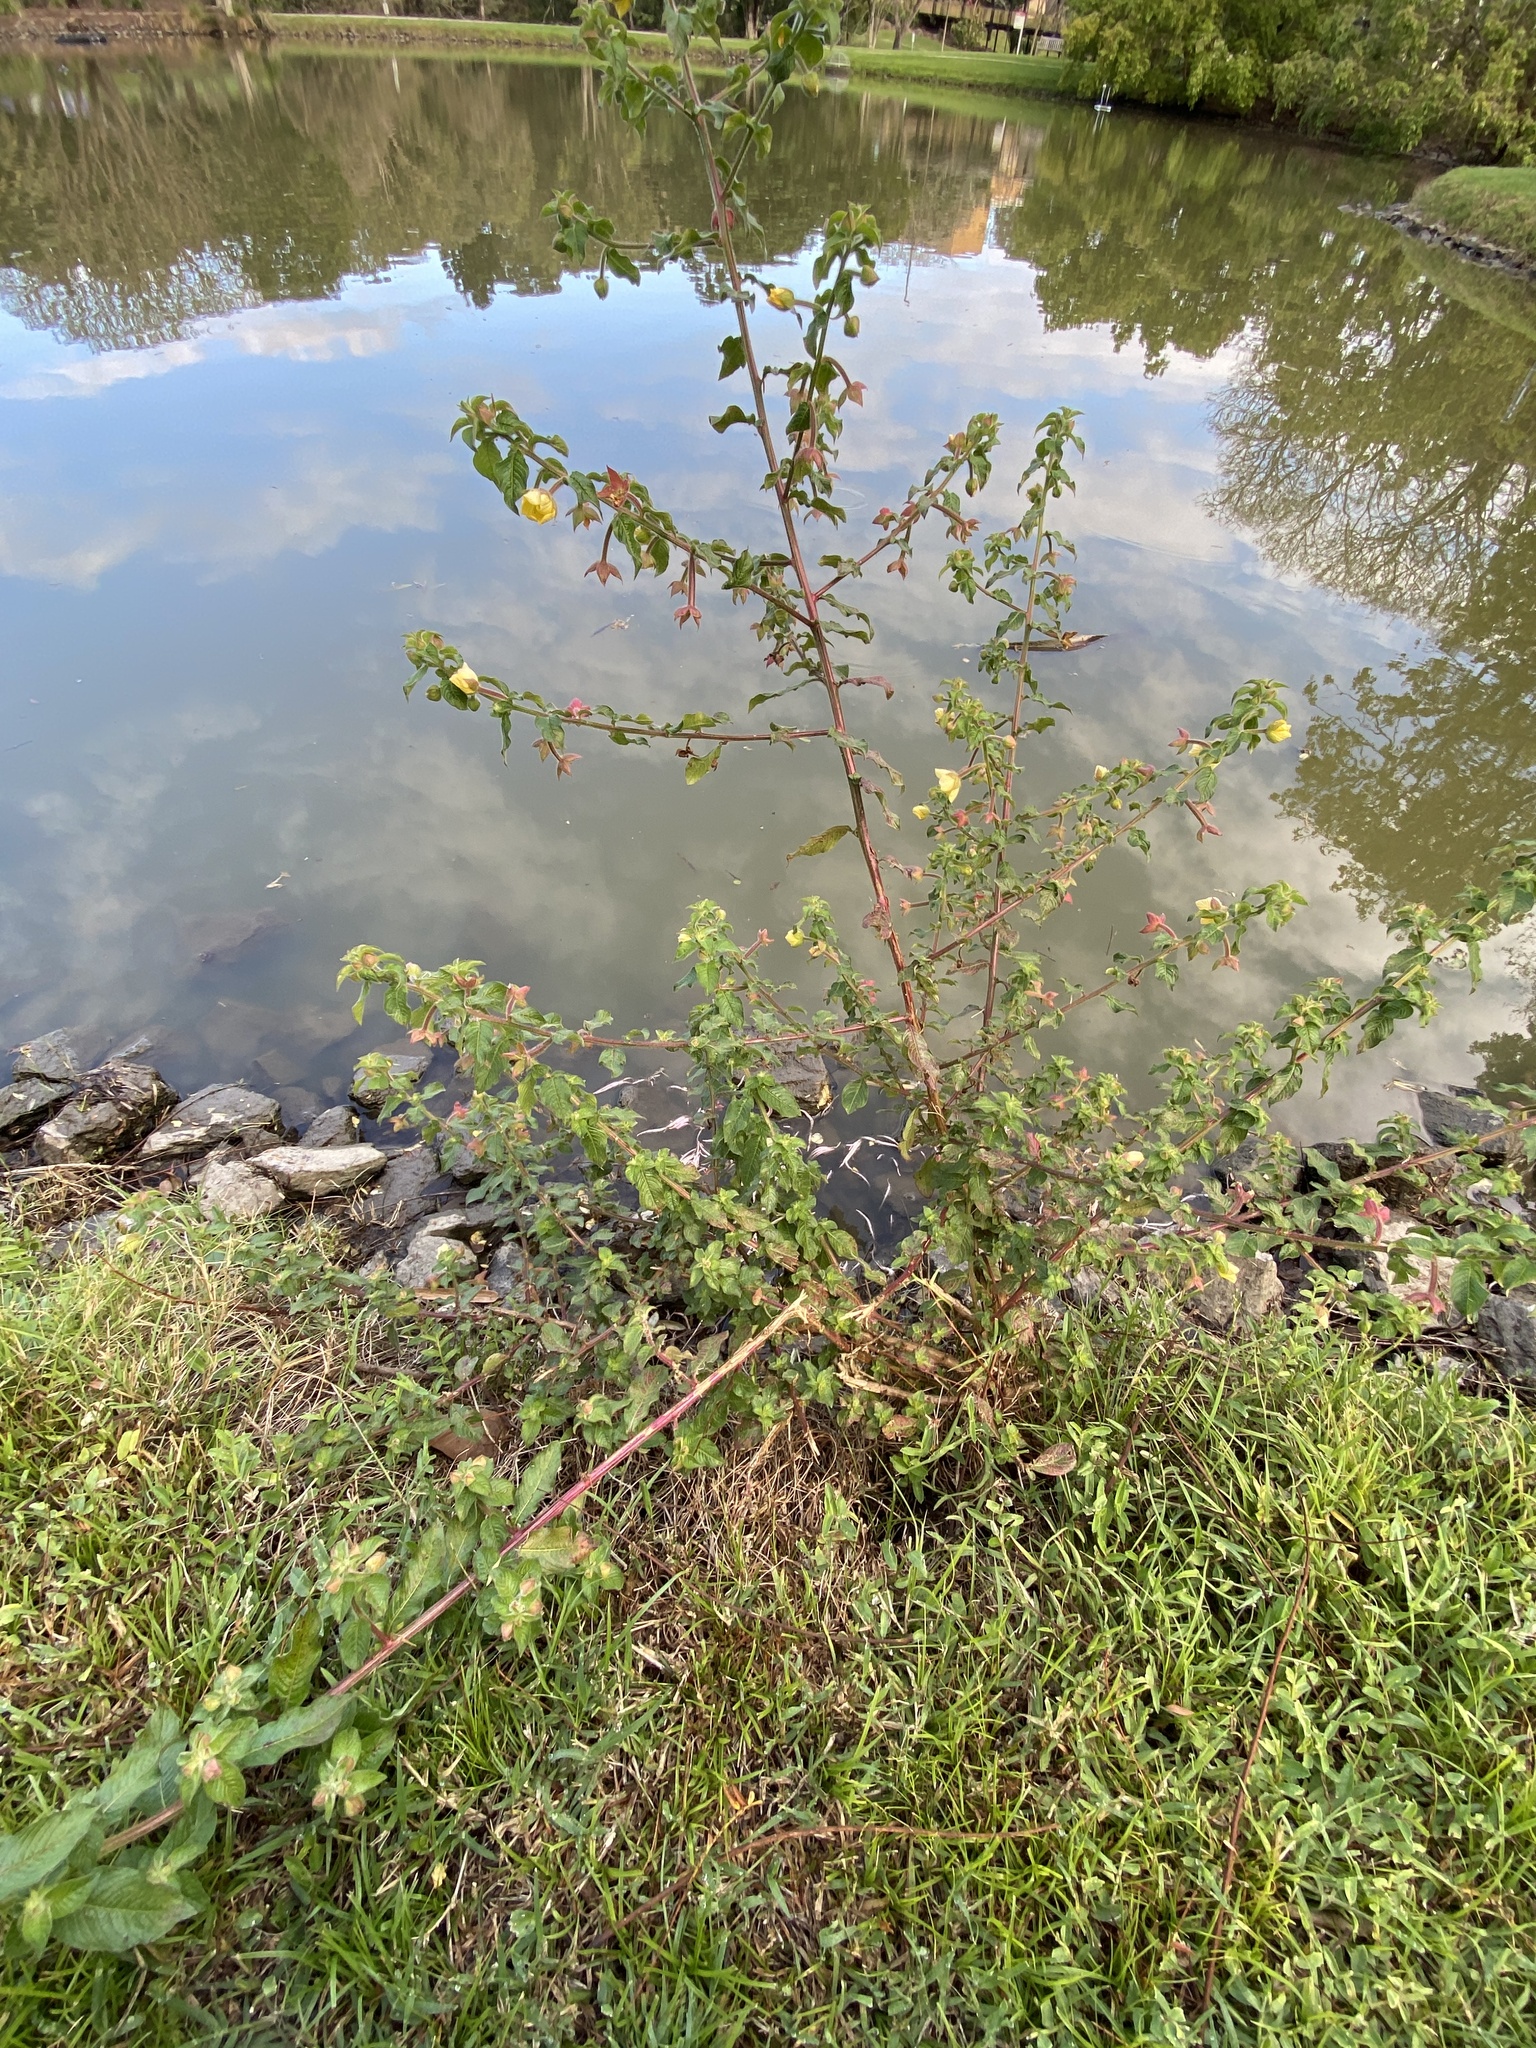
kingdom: Plantae
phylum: Tracheophyta
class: Magnoliopsida
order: Myrtales
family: Onagraceae
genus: Ludwigia
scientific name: Ludwigia octovalvis
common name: Water-primrose
